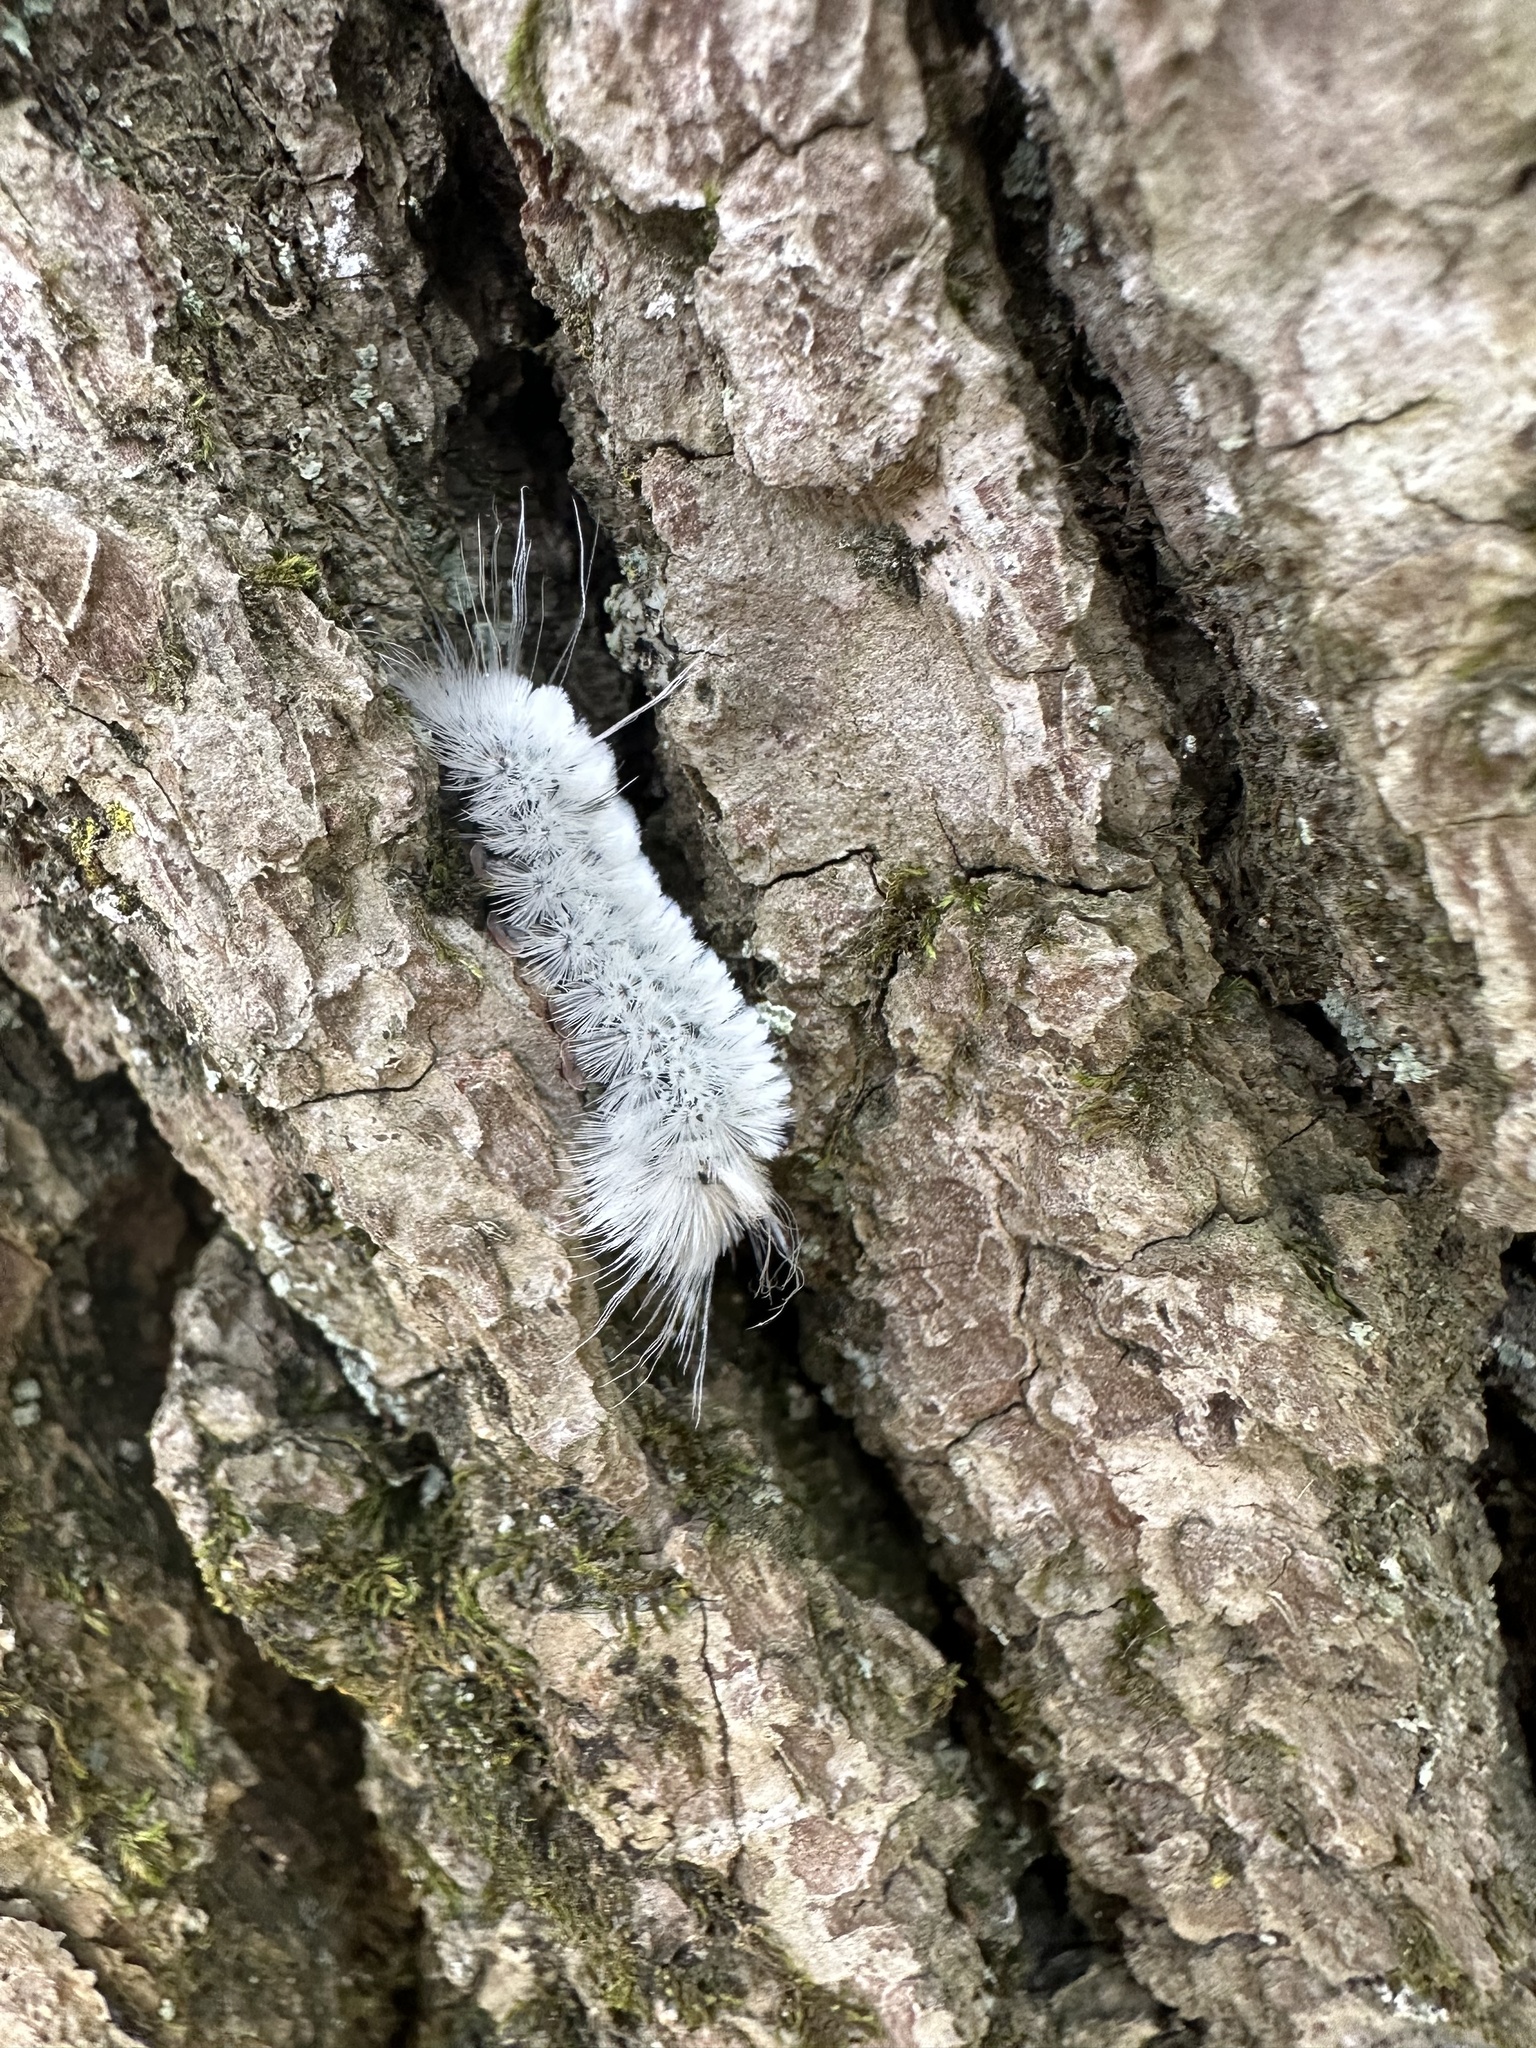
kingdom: Animalia
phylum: Arthropoda
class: Insecta
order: Lepidoptera
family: Erebidae
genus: Lophocampa
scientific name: Lophocampa caryae
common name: Hickory tussock moth
